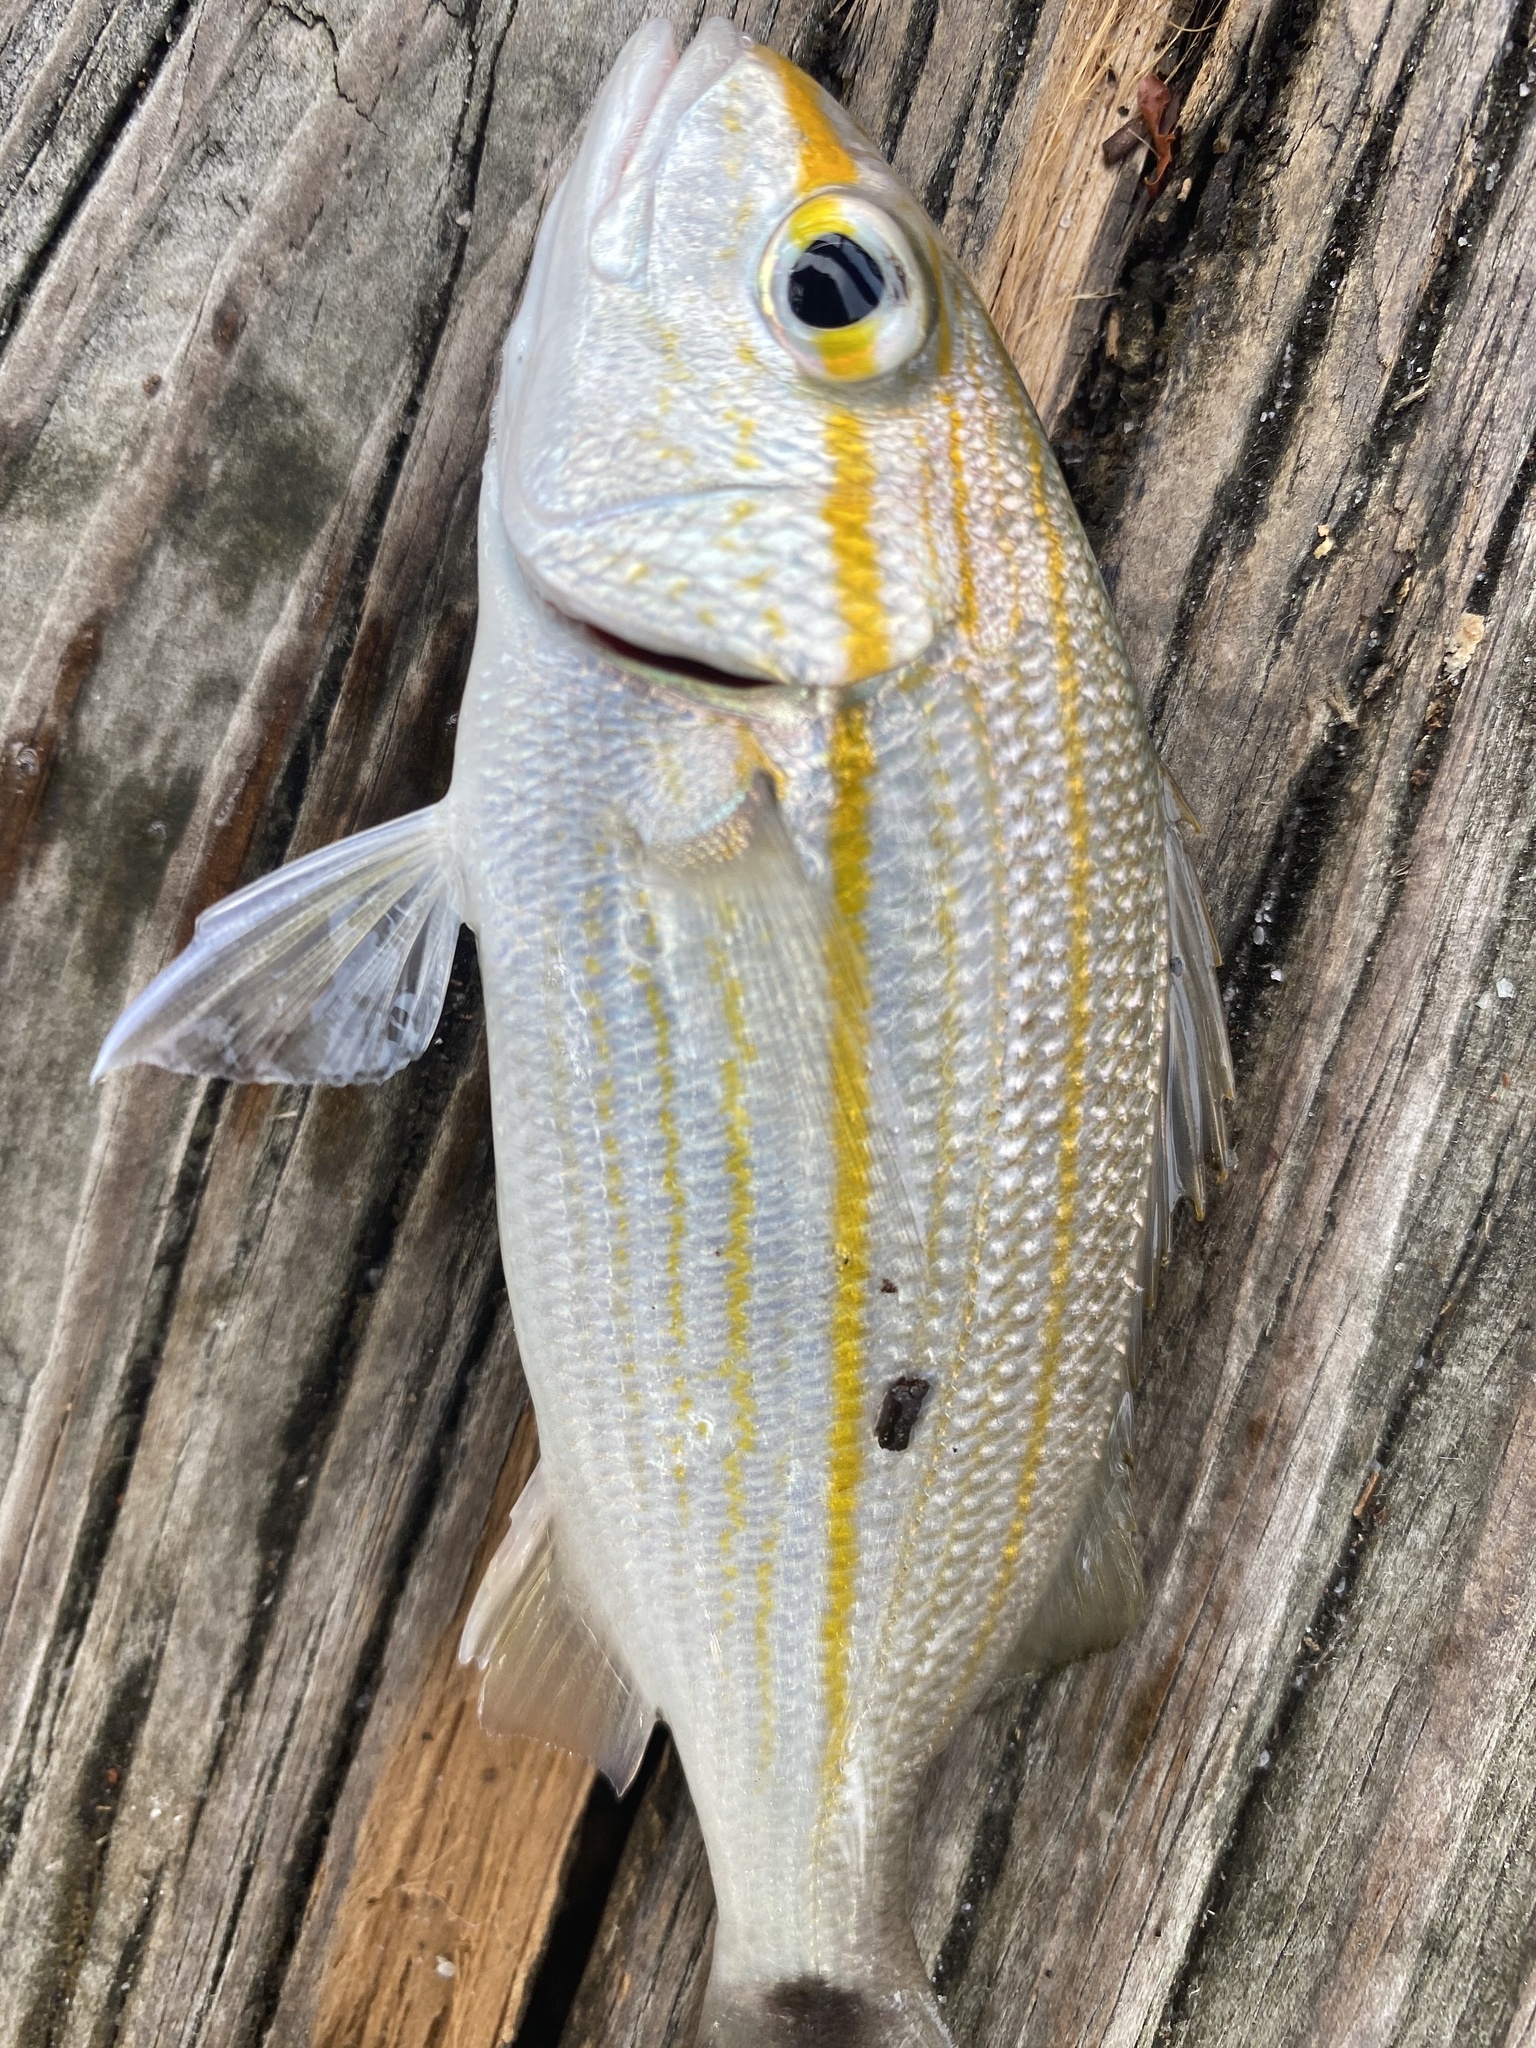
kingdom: Animalia
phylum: Chordata
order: Perciformes
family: Haemulidae
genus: Haemulon
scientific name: Haemulon aurolineatum
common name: Tomtate
